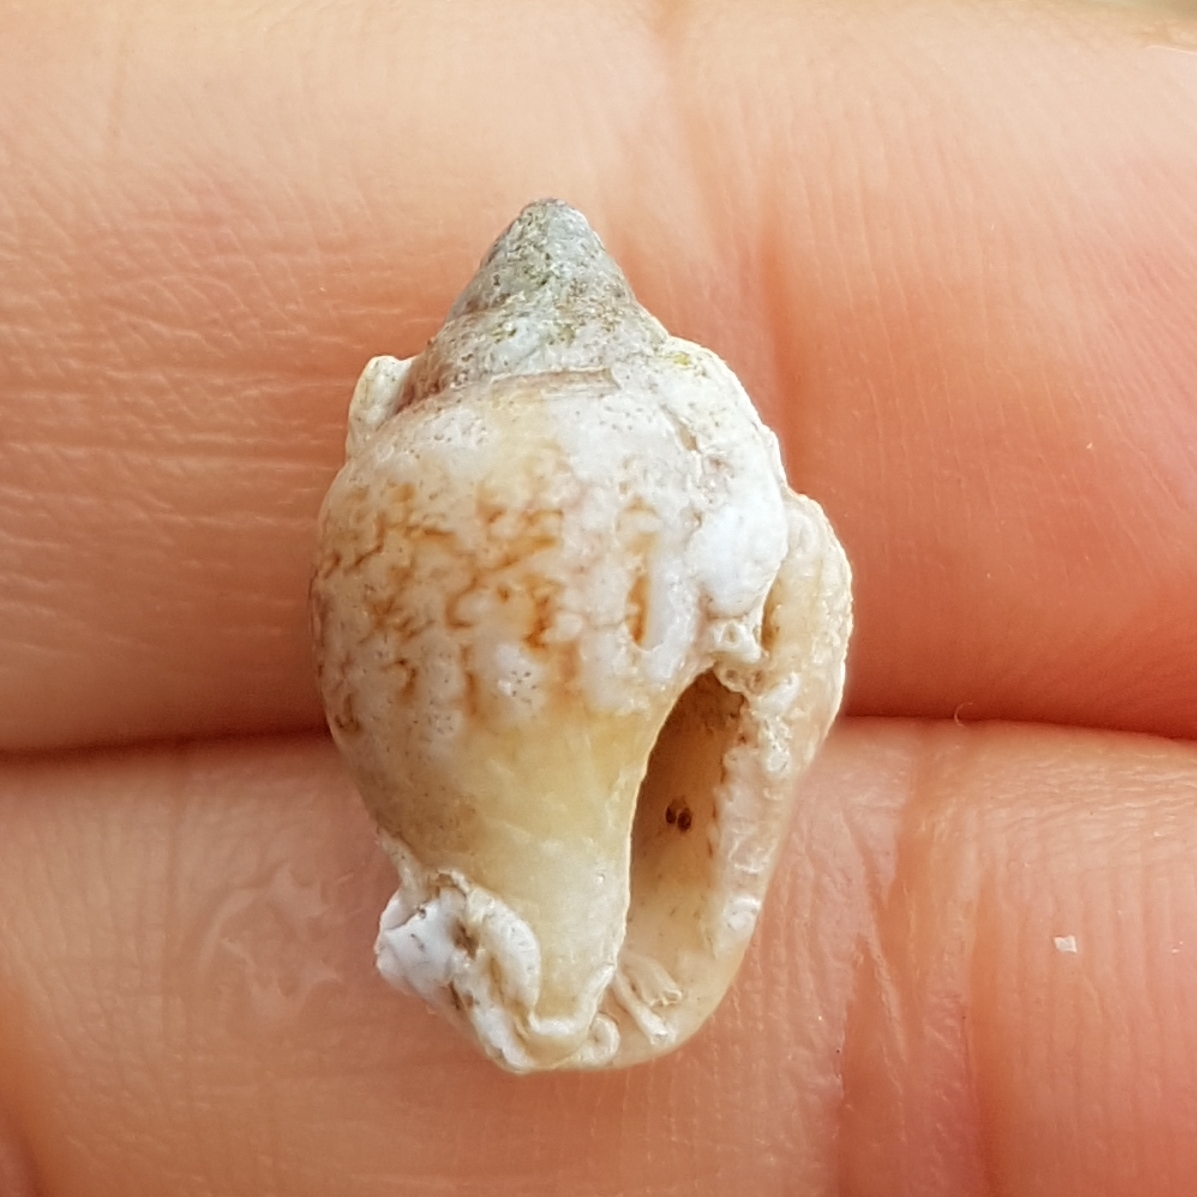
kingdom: Animalia
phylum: Mollusca
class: Gastropoda
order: Neogastropoda
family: Columbellidae
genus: Columbella
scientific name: Columbella rustica
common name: Rustic dove shell
